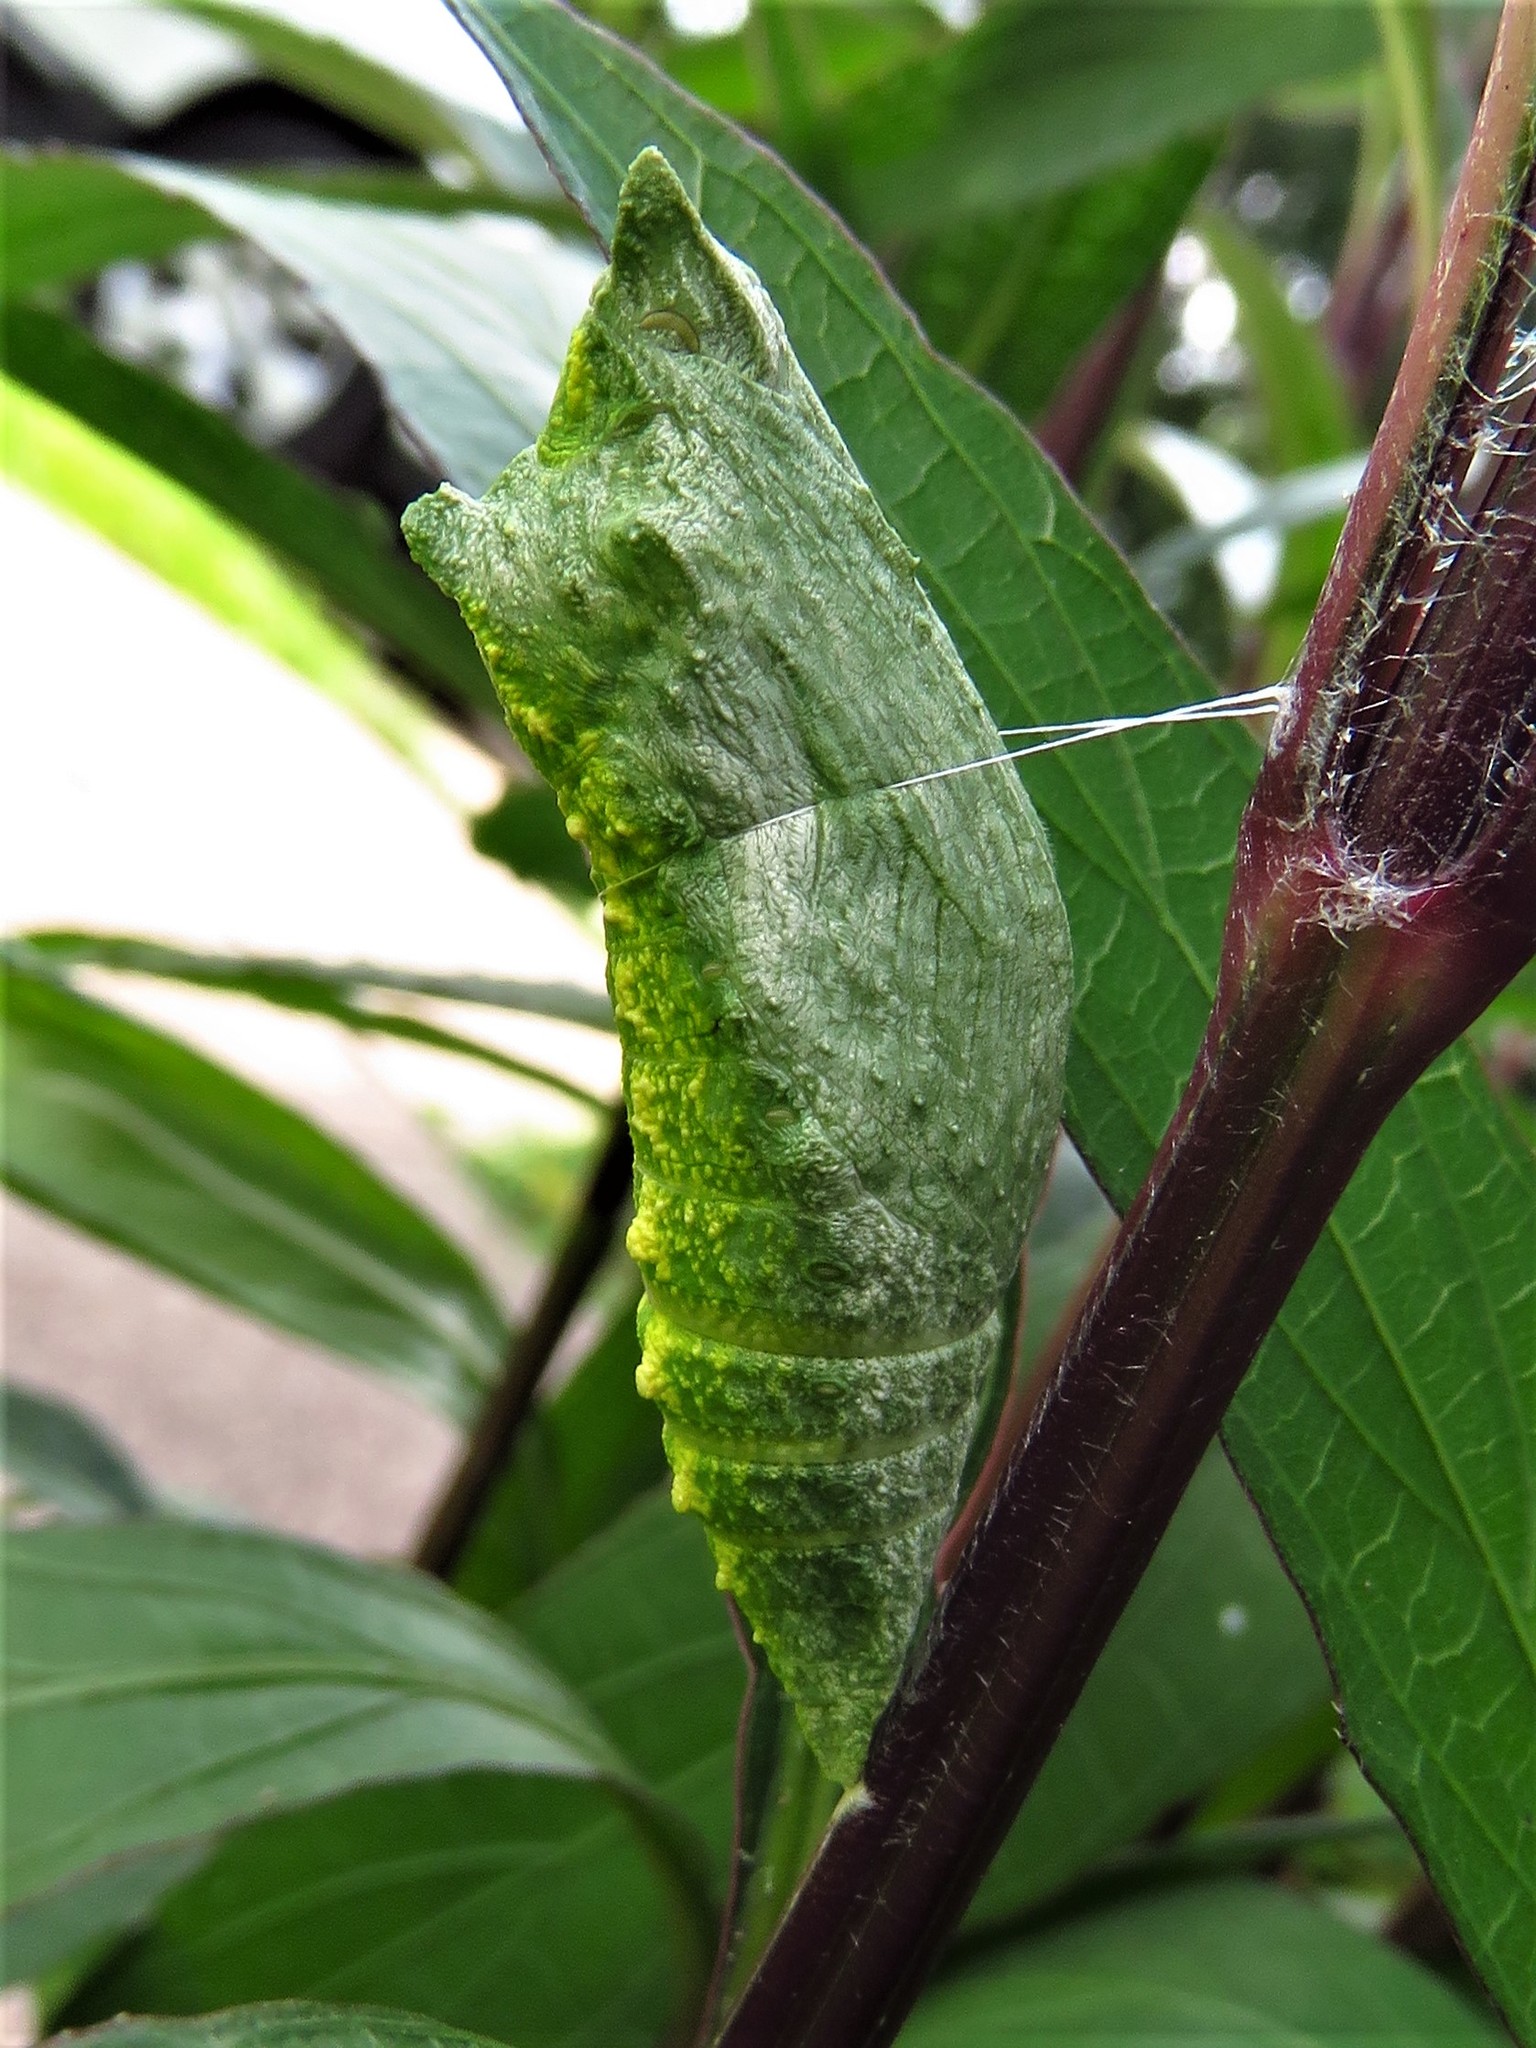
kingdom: Animalia
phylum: Arthropoda
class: Insecta
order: Lepidoptera
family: Papilionidae
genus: Papilio
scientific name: Papilio polyxenes
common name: Black swallowtail
